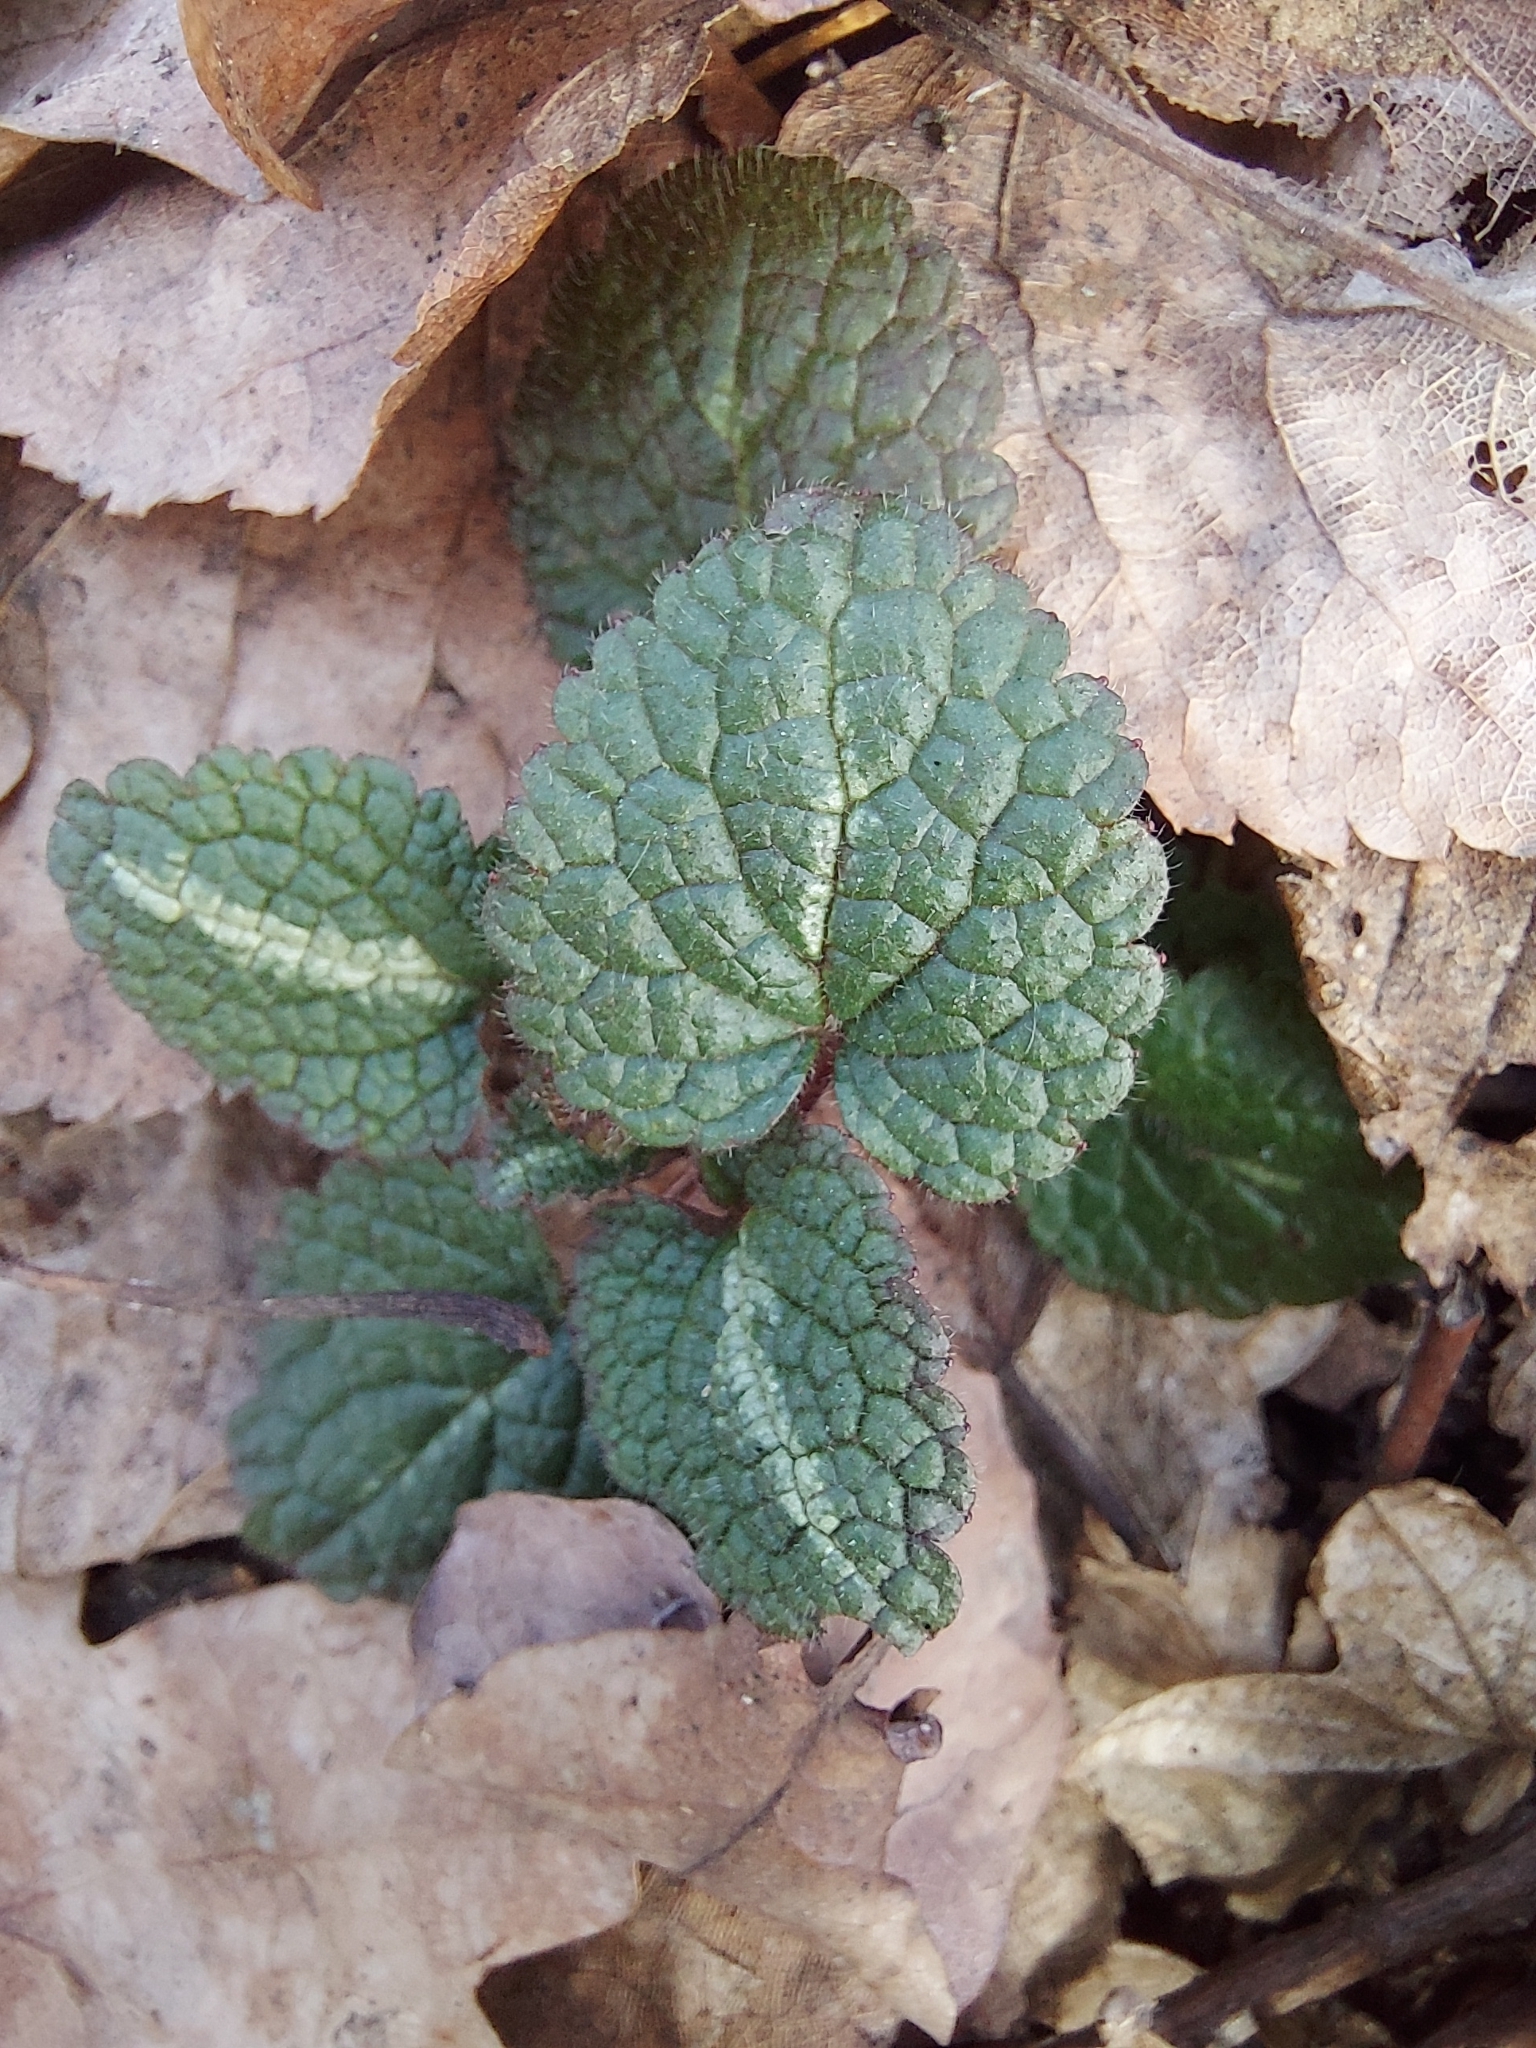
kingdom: Plantae
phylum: Tracheophyta
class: Magnoliopsida
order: Lamiales
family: Lamiaceae
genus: Lamium
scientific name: Lamium maculatum
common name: Spotted dead-nettle
